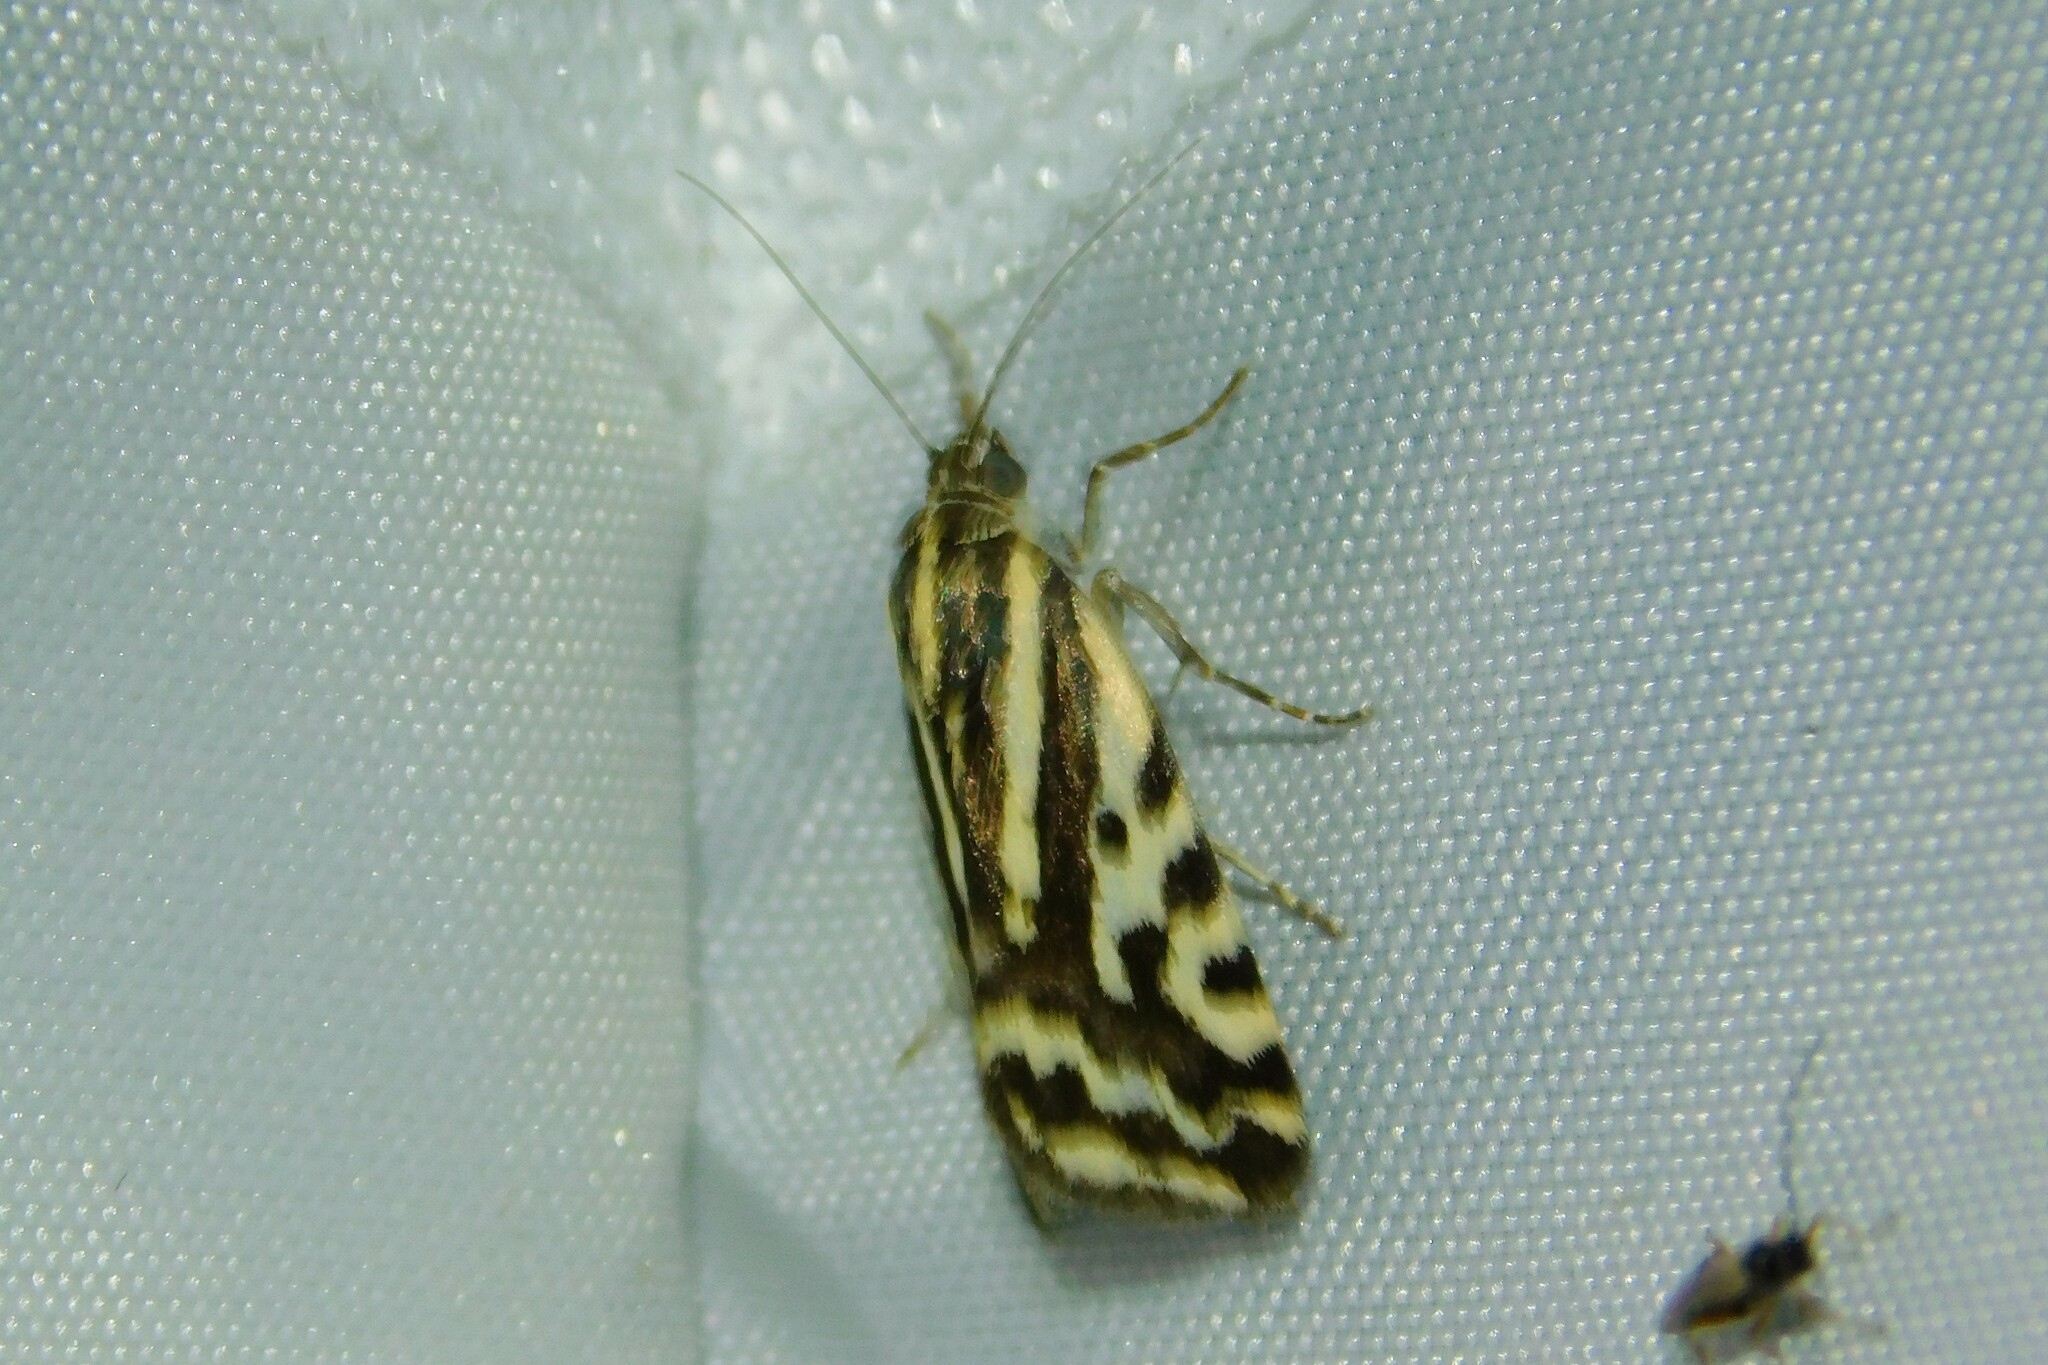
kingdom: Animalia
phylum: Arthropoda
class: Insecta
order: Lepidoptera
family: Noctuidae
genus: Acontia
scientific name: Acontia trabealis
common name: Spotted sulphur
